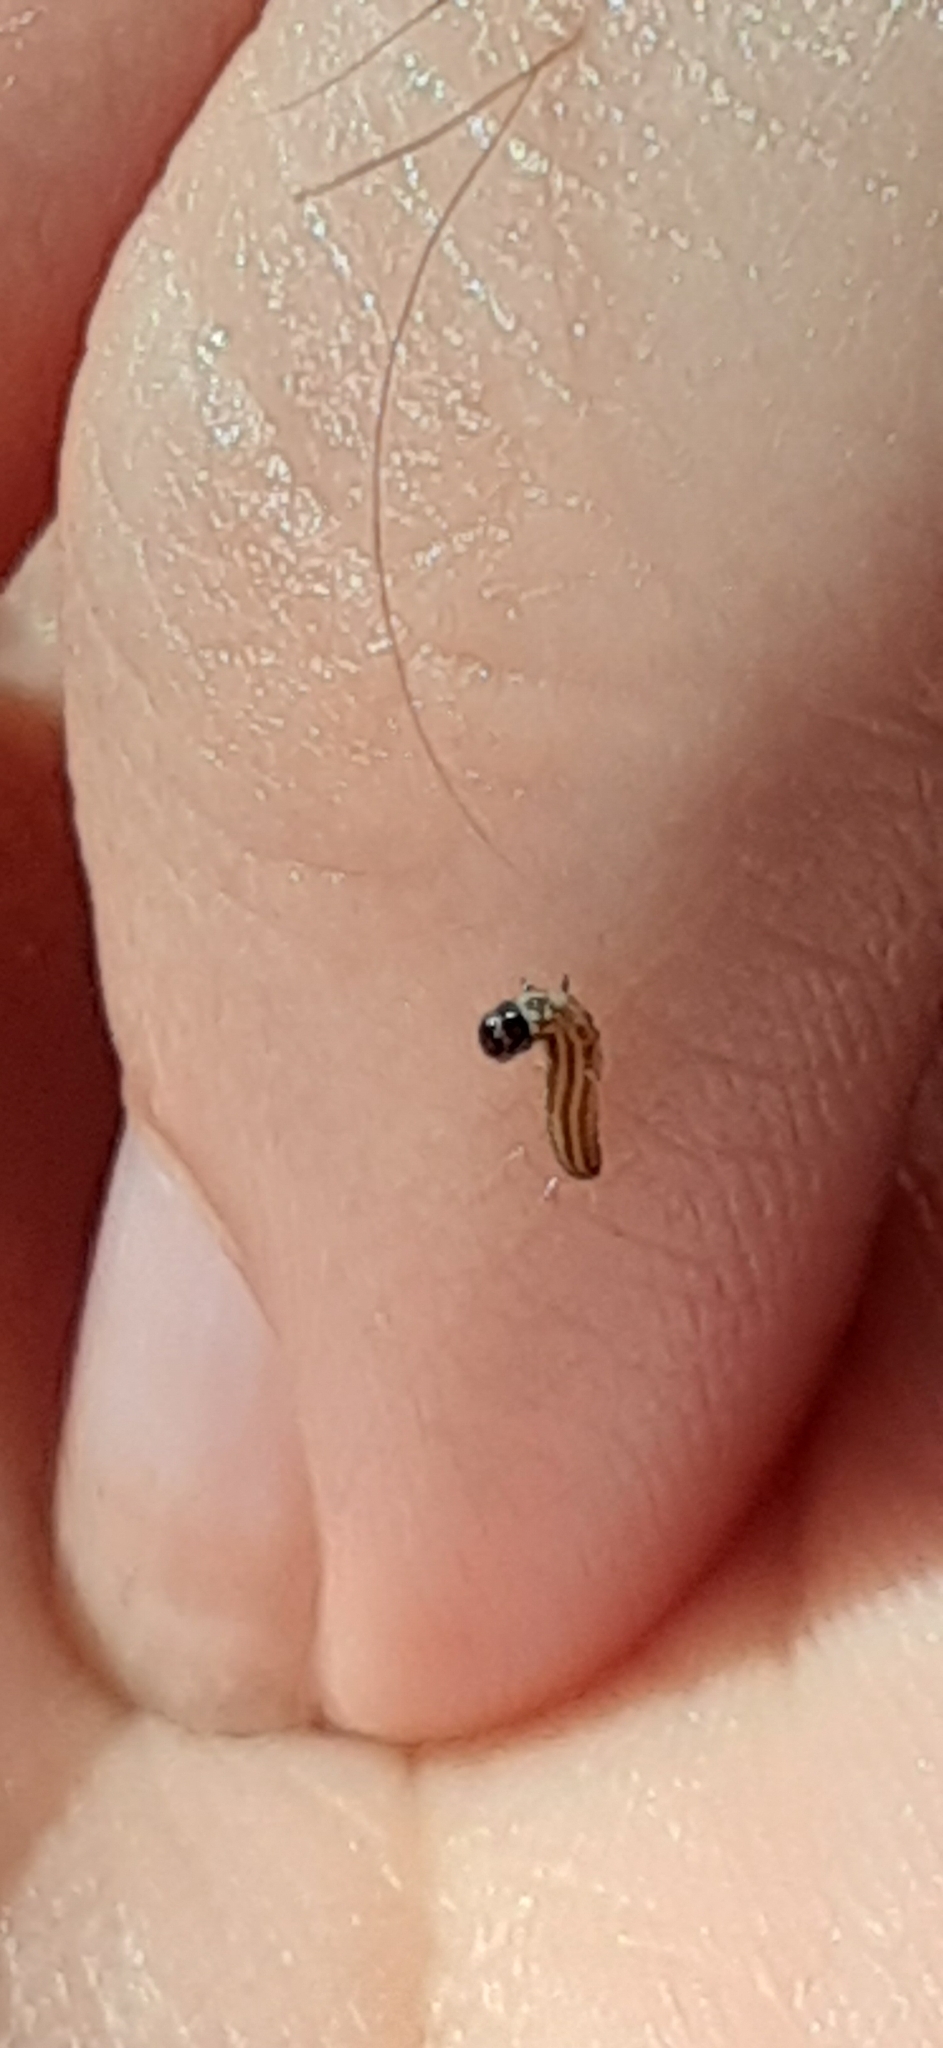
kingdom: Animalia
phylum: Arthropoda
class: Insecta
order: Lepidoptera
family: Pyralidae
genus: Homoeosoma
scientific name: Homoeosoma electella
